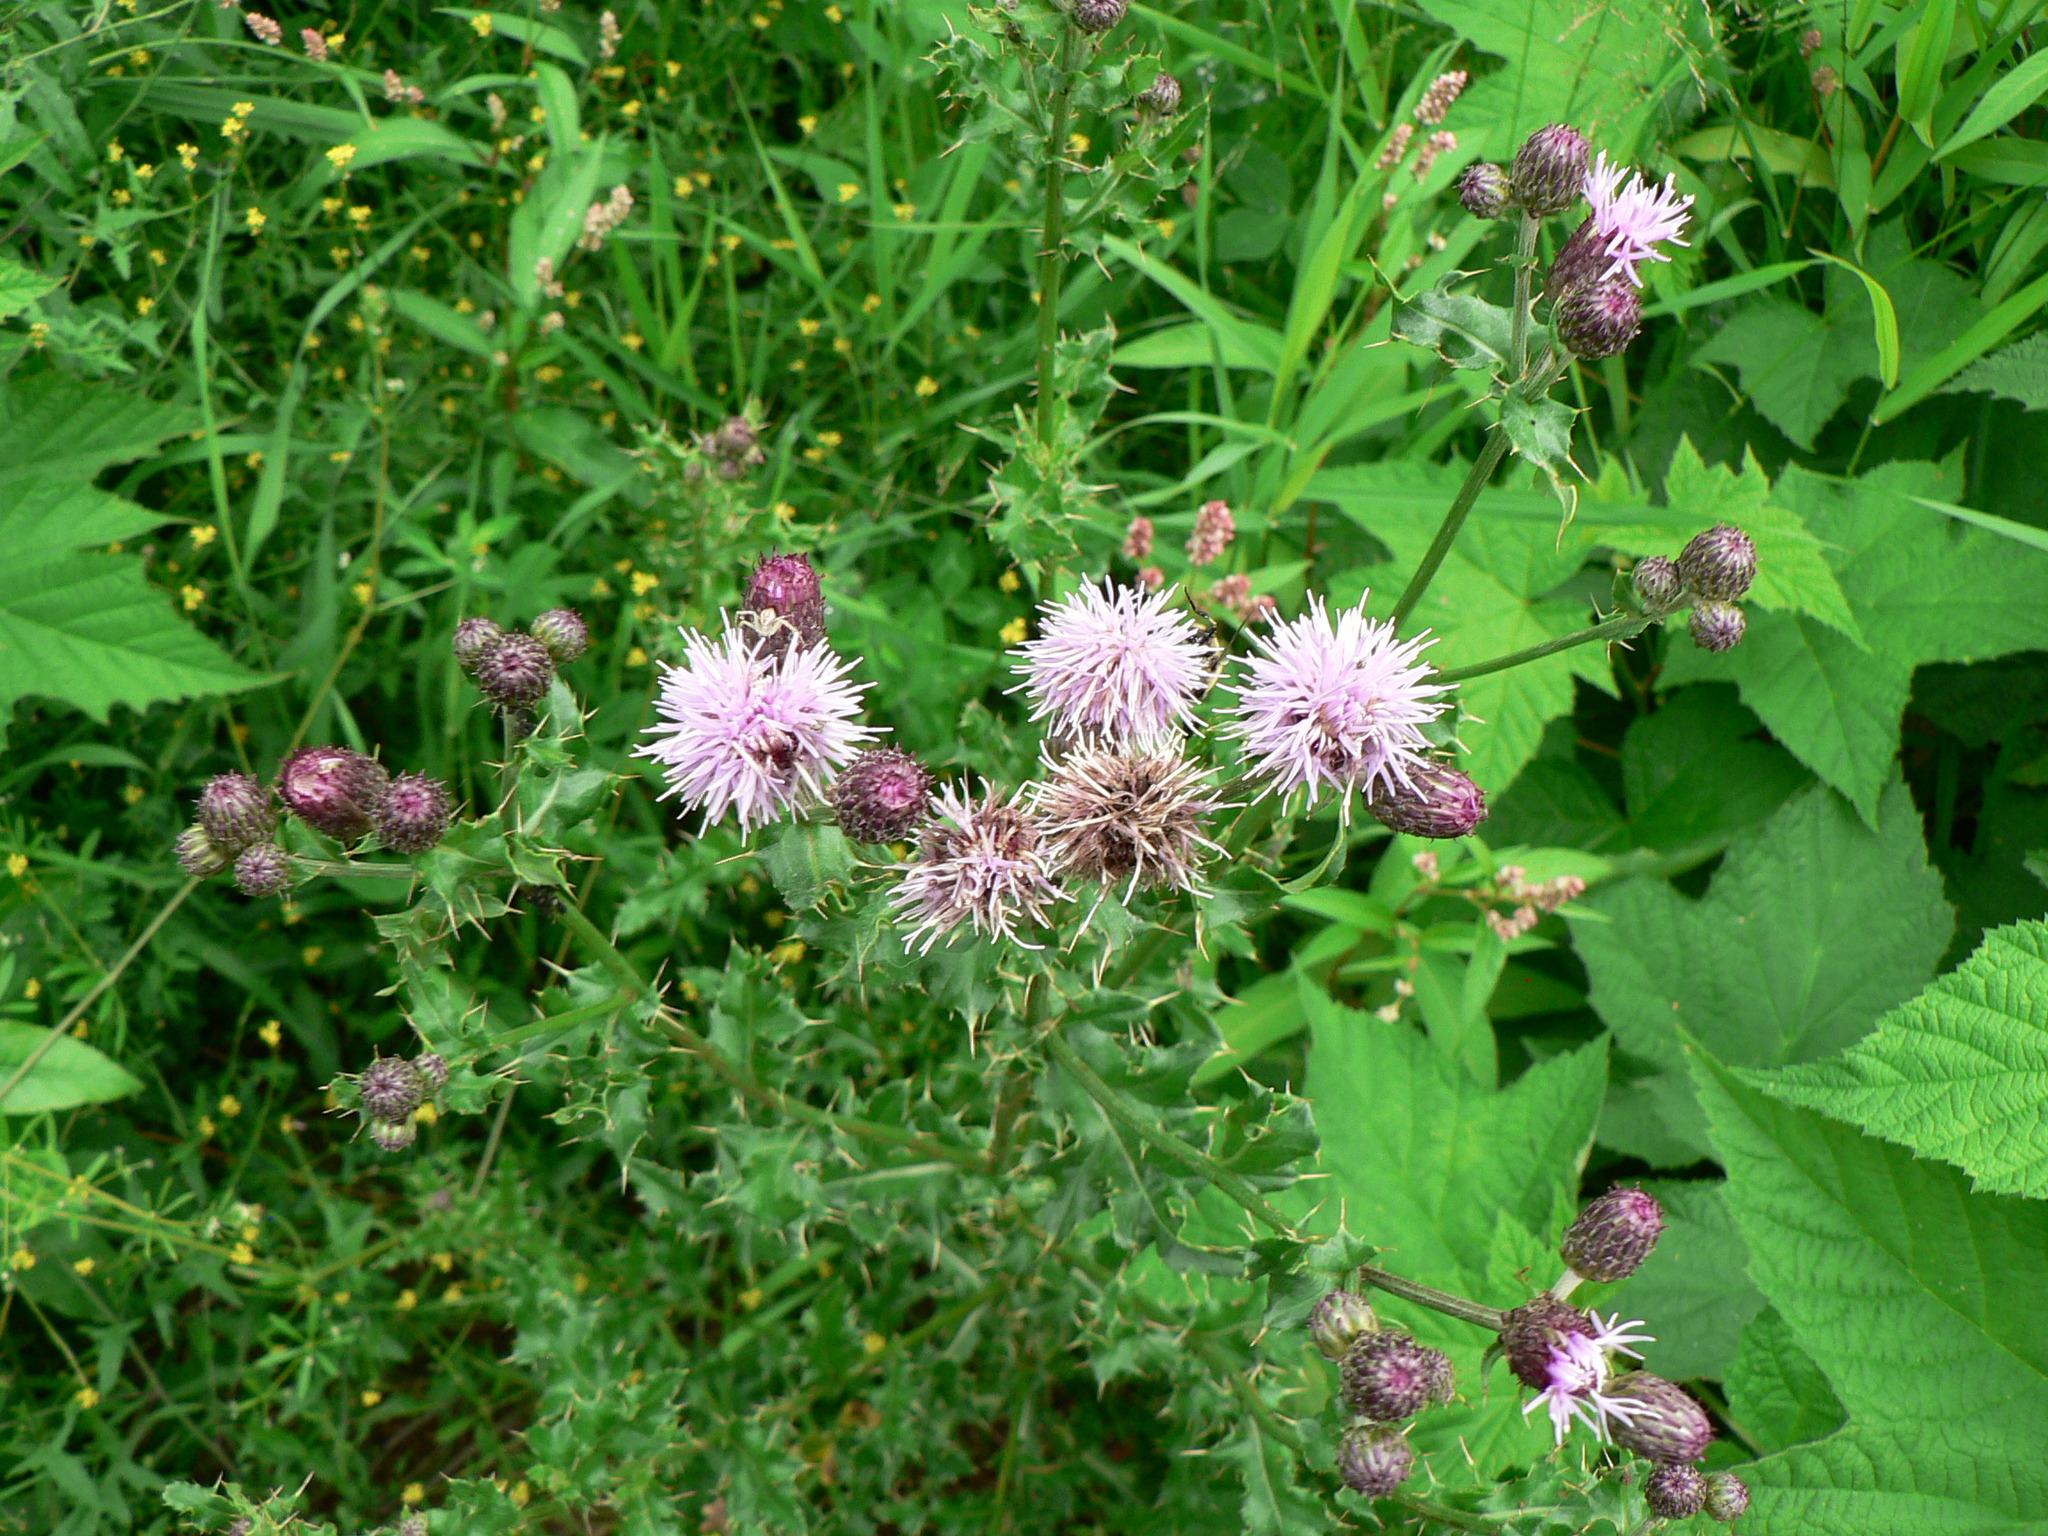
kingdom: Plantae
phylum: Tracheophyta
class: Magnoliopsida
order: Asterales
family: Asteraceae
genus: Cirsium
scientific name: Cirsium arvense
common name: Creeping thistle
